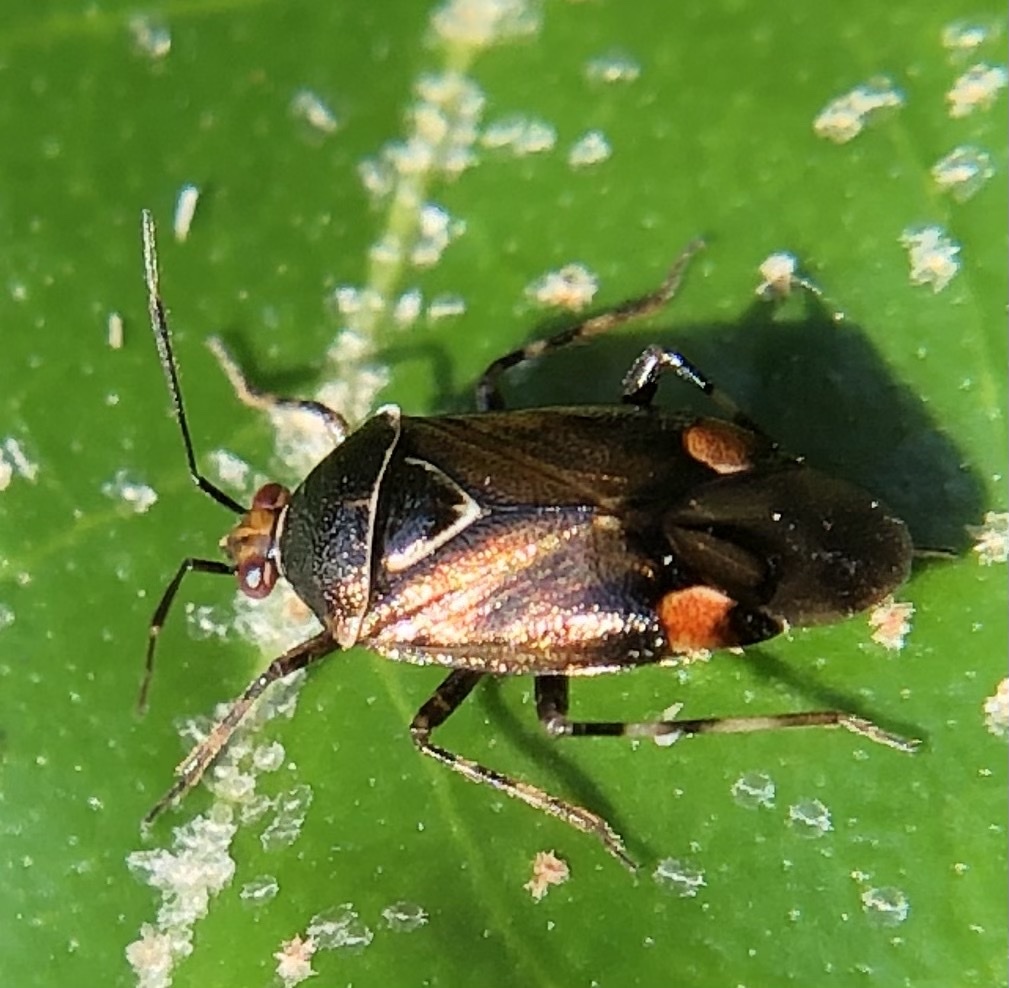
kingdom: Animalia
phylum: Arthropoda
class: Insecta
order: Hemiptera
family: Miridae
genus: Deraeocoris
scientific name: Deraeocoris flavilinea
